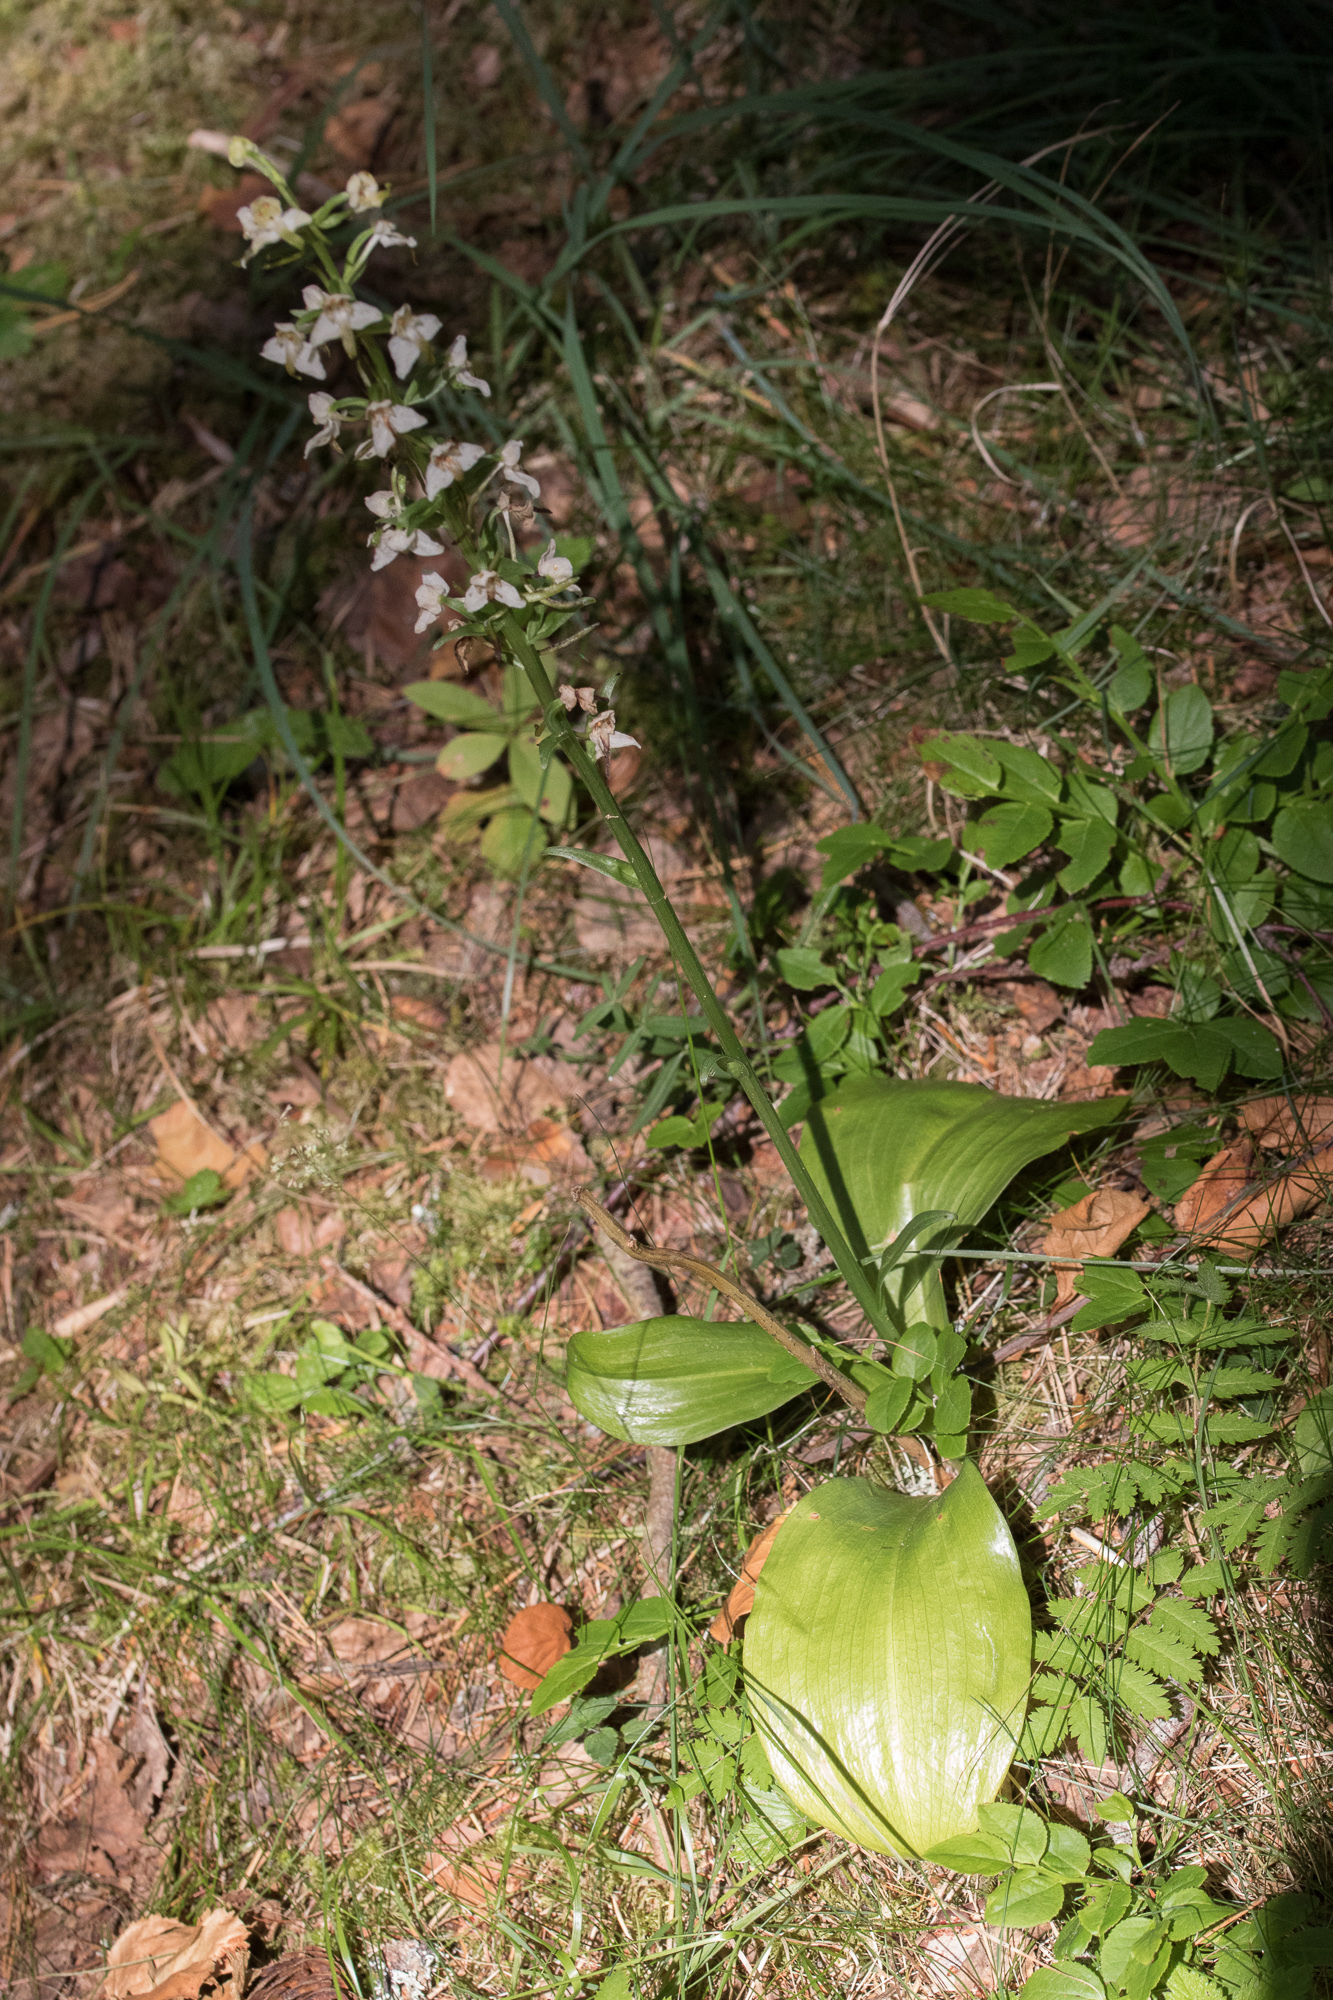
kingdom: Plantae
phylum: Tracheophyta
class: Liliopsida
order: Asparagales
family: Orchidaceae
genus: Platanthera
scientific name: Platanthera chlorantha
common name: Greater butterfly-orchid
